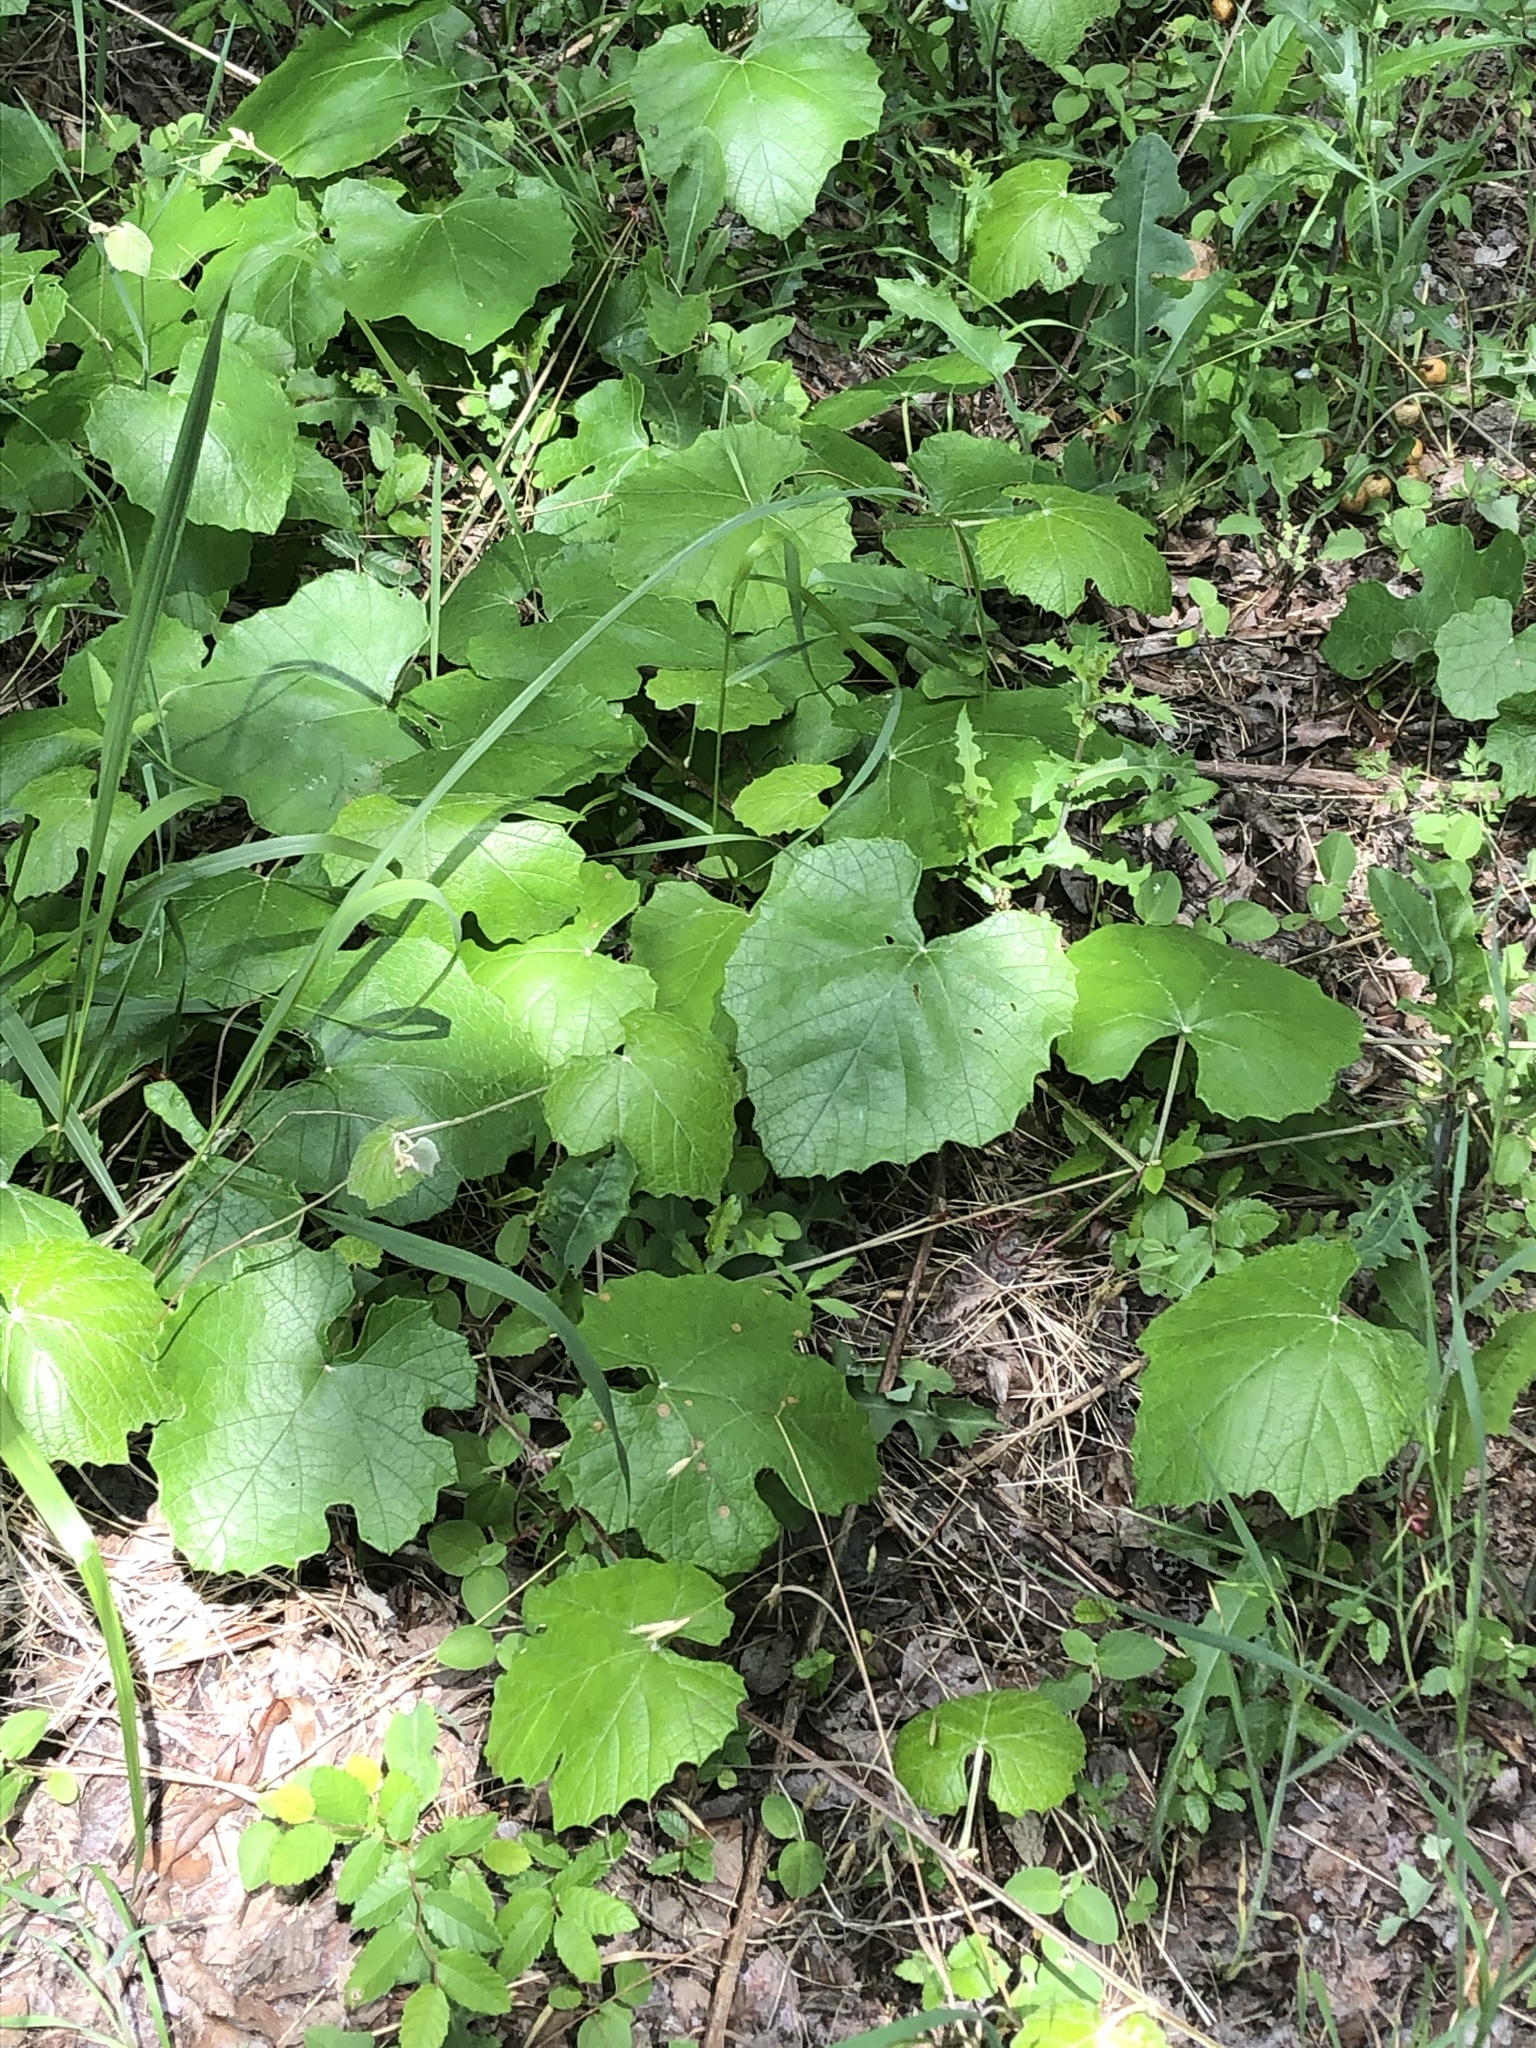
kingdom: Plantae
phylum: Tracheophyta
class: Magnoliopsida
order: Vitales
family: Vitaceae
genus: Vitis
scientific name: Vitis mustangensis
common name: Mustang grape
